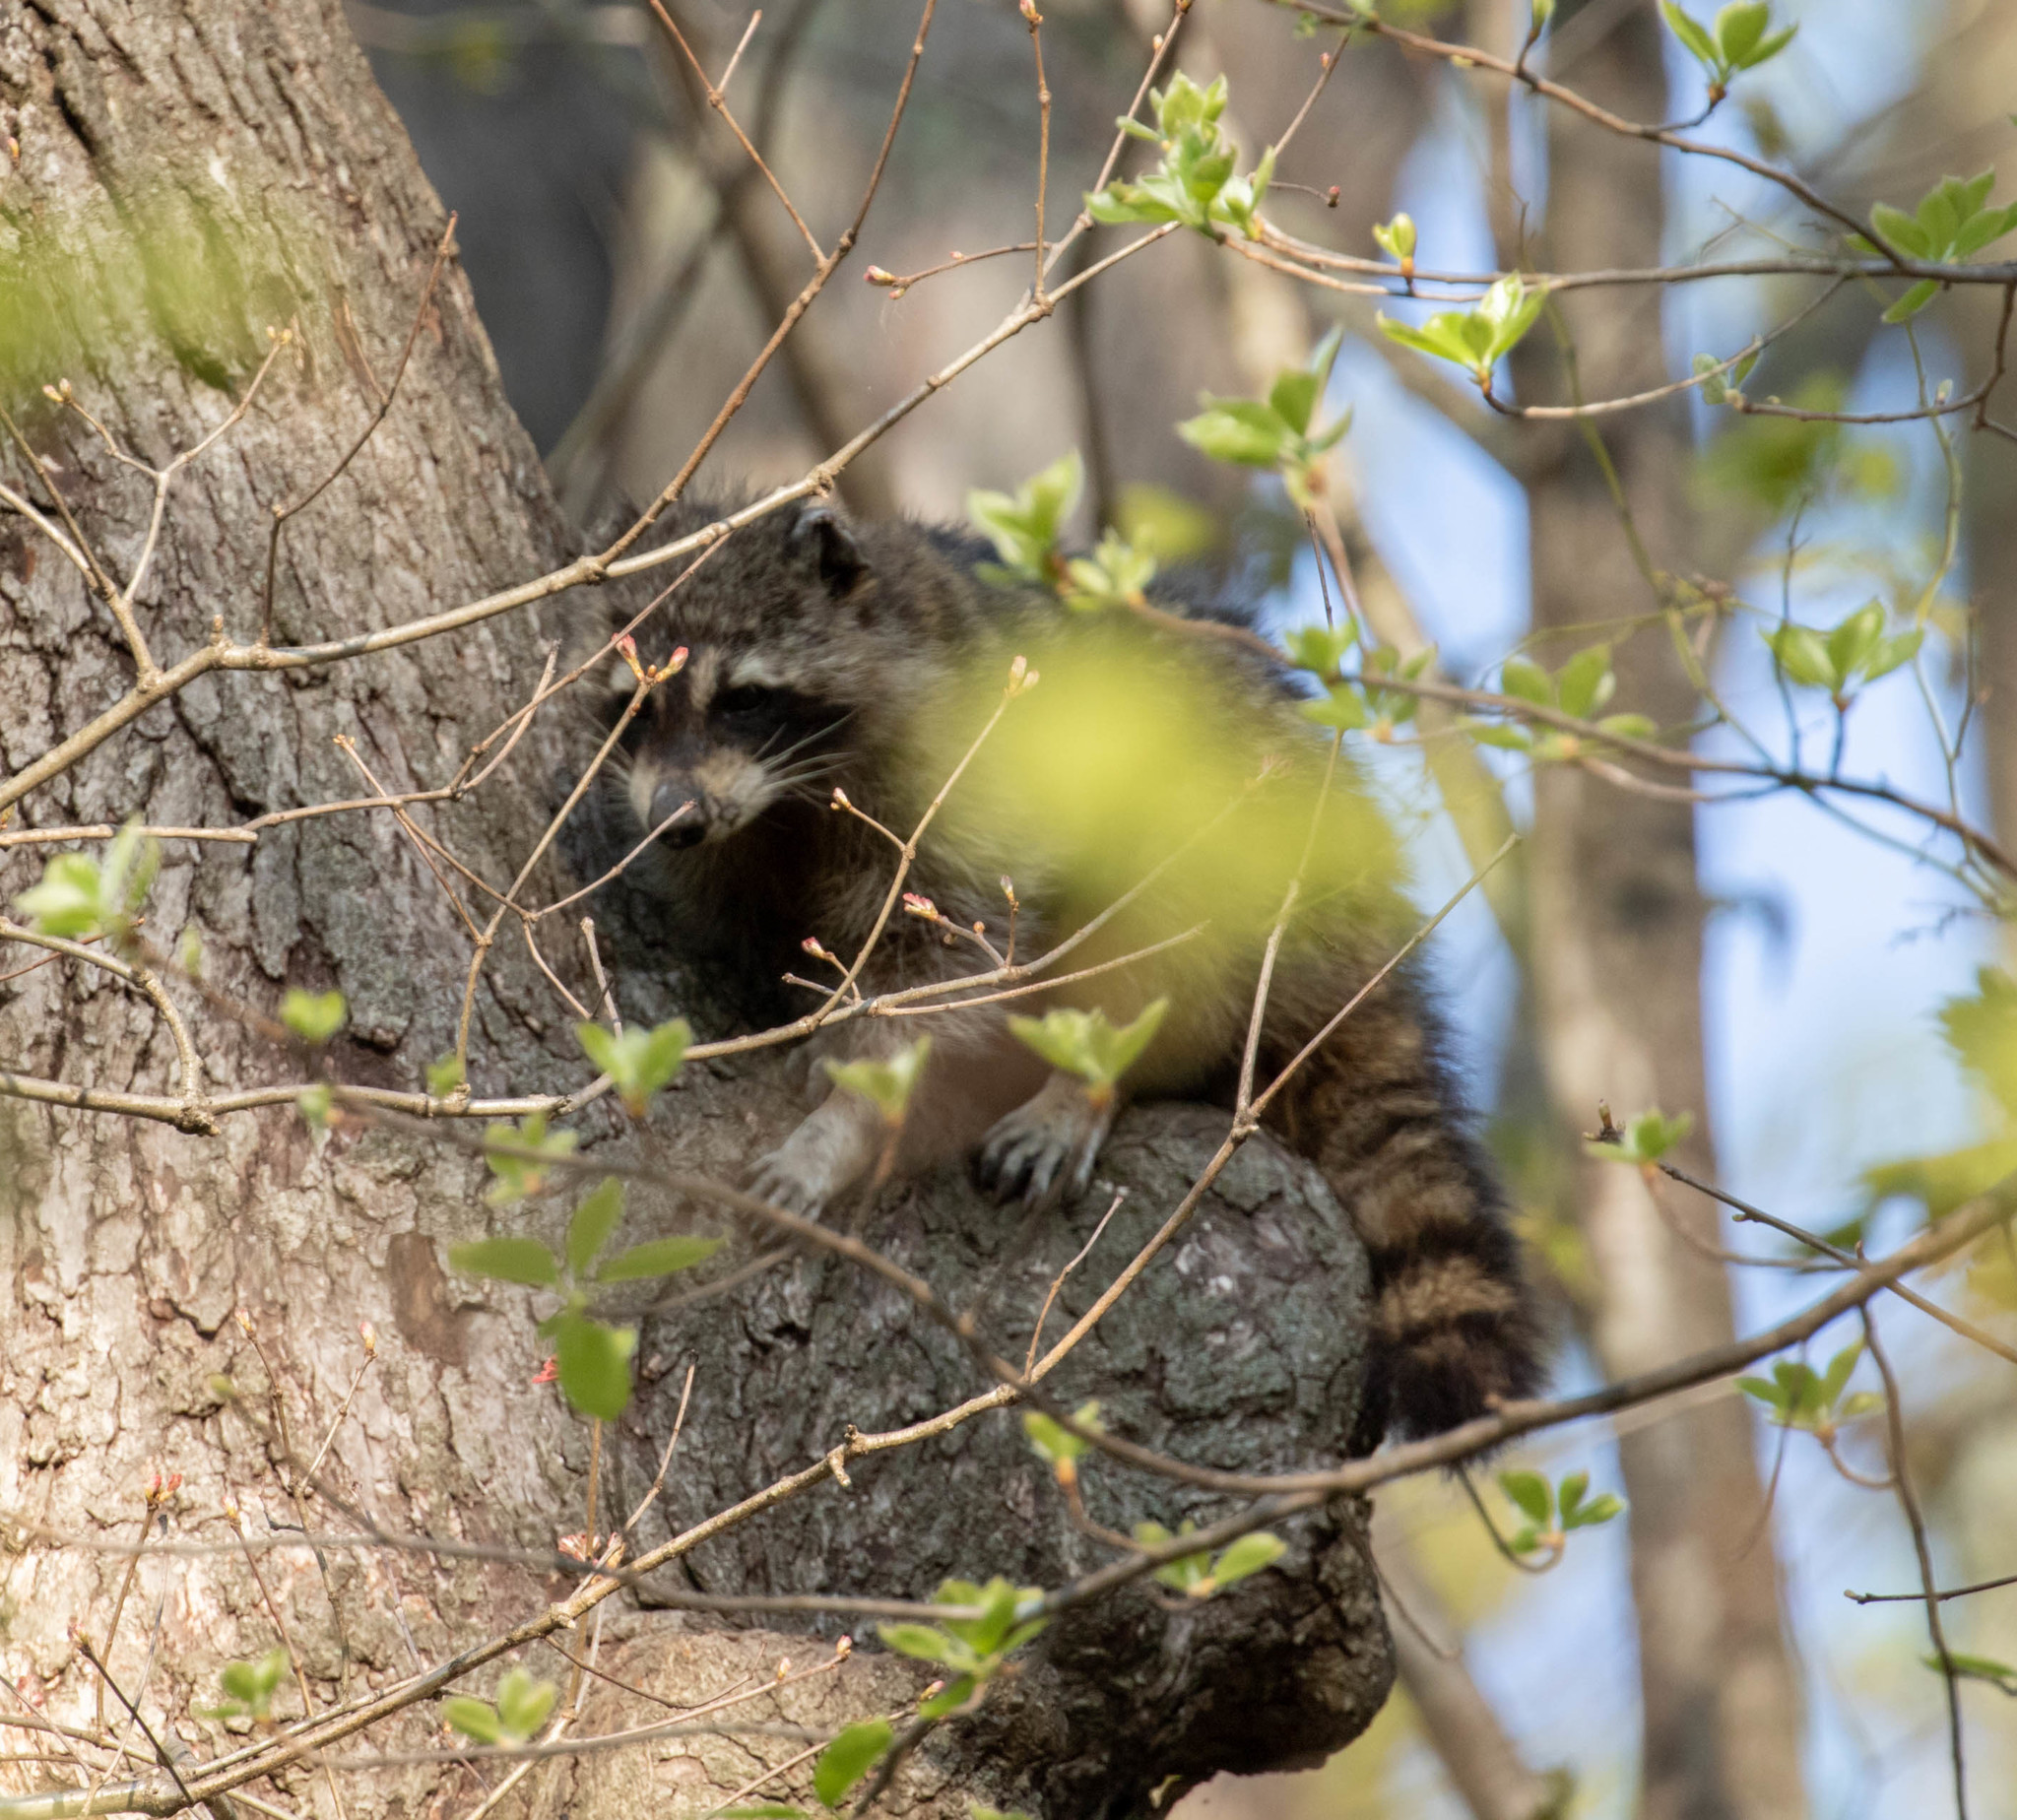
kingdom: Animalia
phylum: Chordata
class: Mammalia
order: Carnivora
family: Procyonidae
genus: Procyon
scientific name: Procyon lotor
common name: Raccoon
